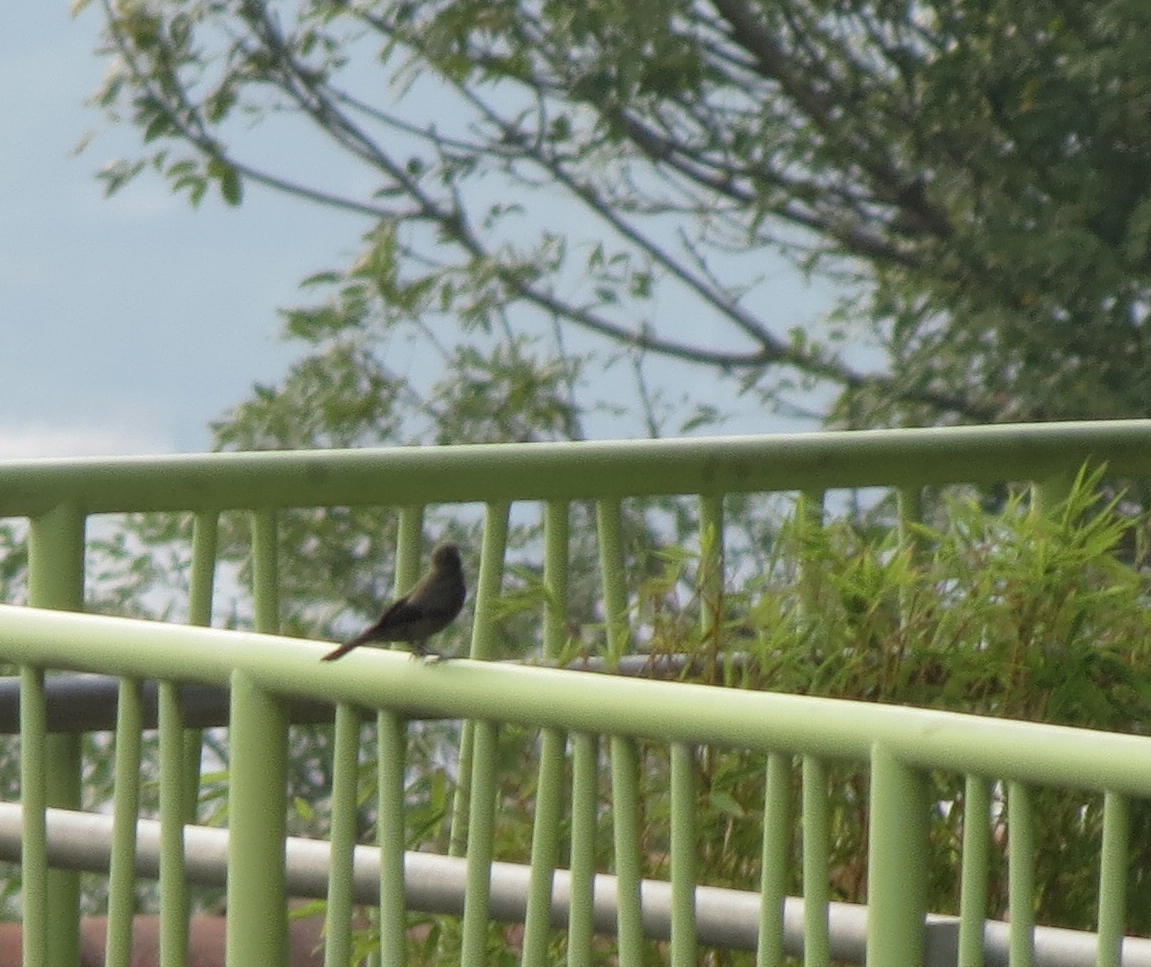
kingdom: Animalia
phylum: Chordata
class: Aves
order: Passeriformes
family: Thraupidae
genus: Thraupis
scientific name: Thraupis palmarum
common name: Palm tanager
